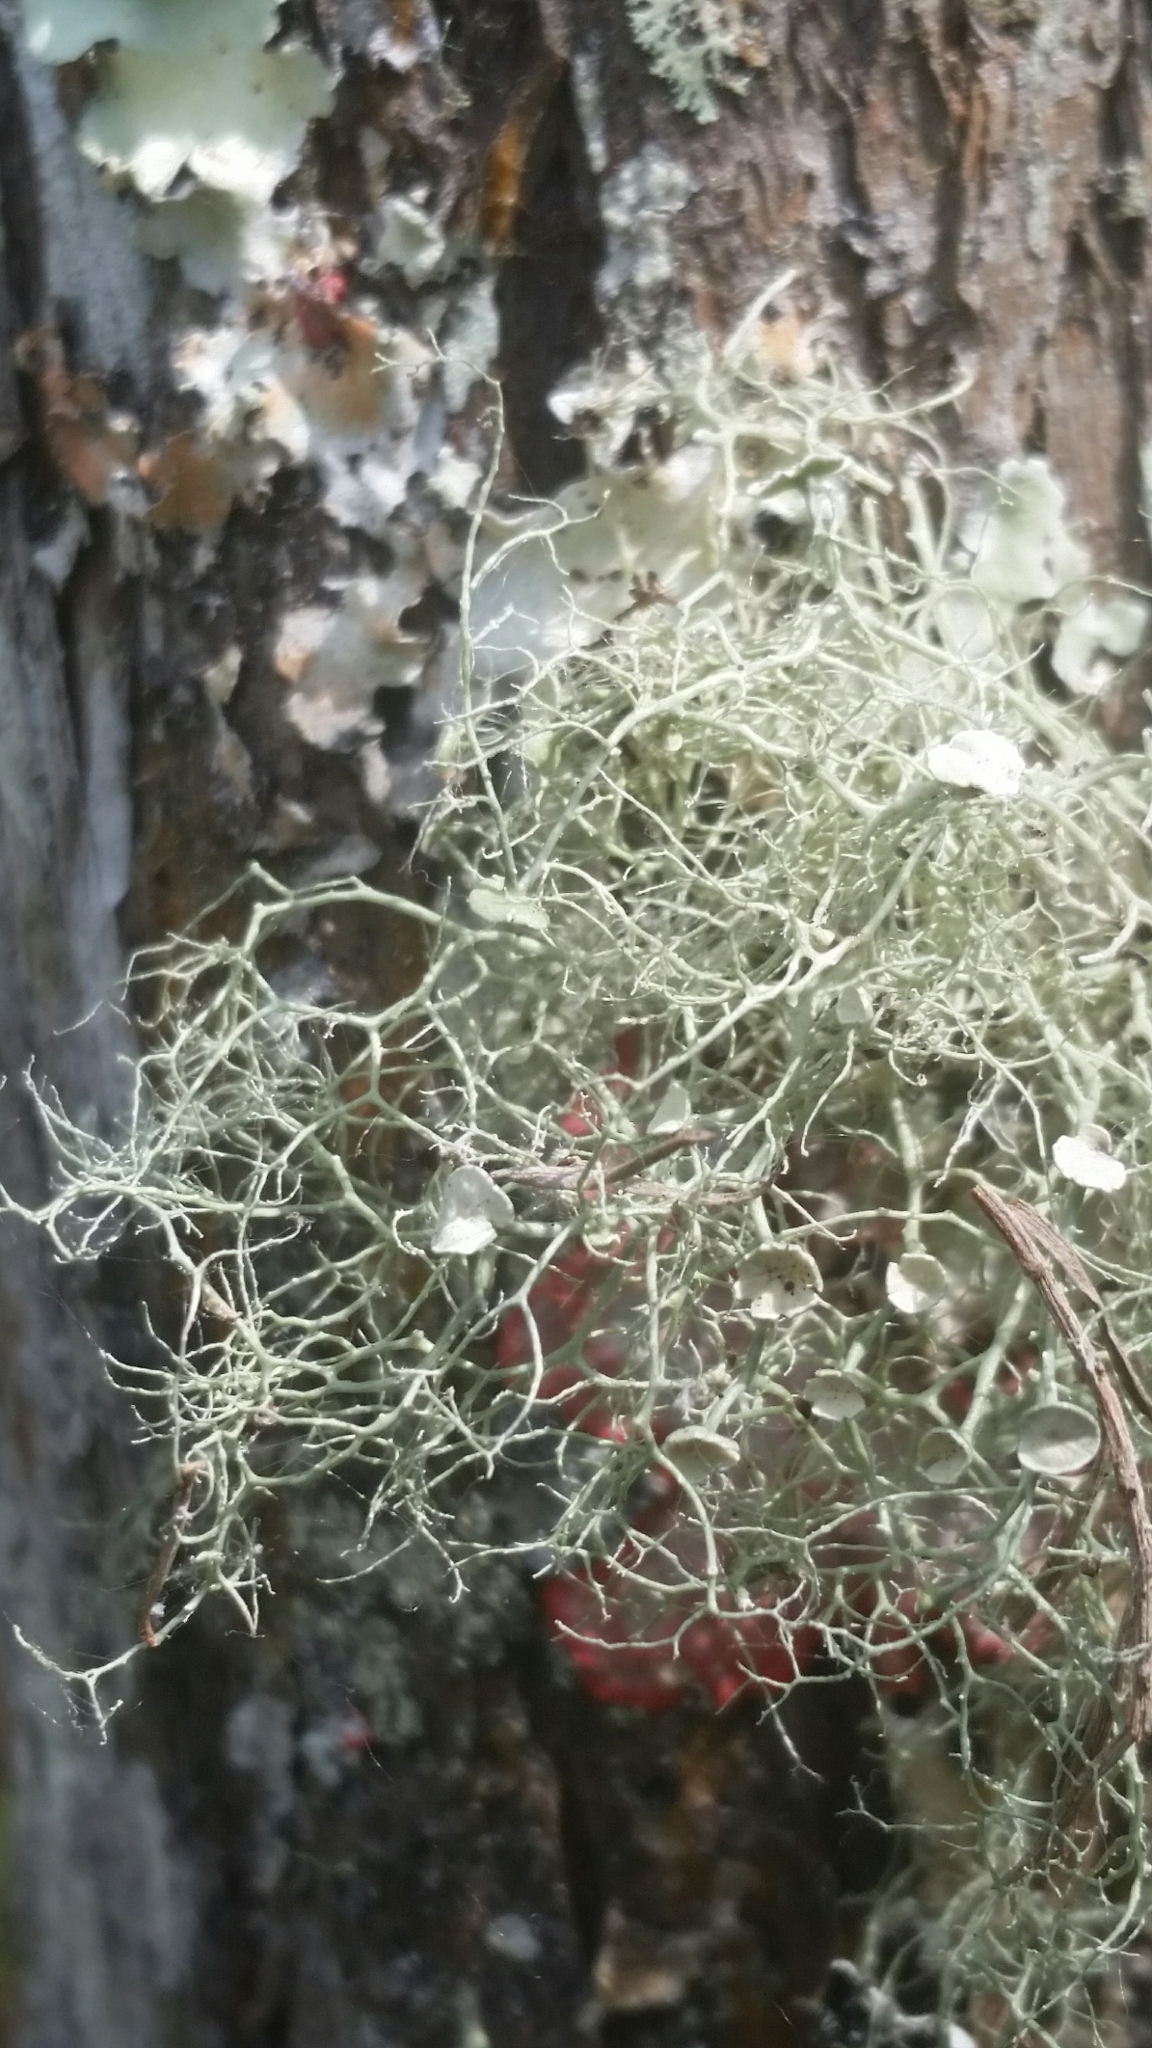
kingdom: Fungi
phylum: Ascomycota
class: Lecanoromycetes
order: Lecanorales
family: Ramalinaceae
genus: Ramalina
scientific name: Ramalina stenospora
